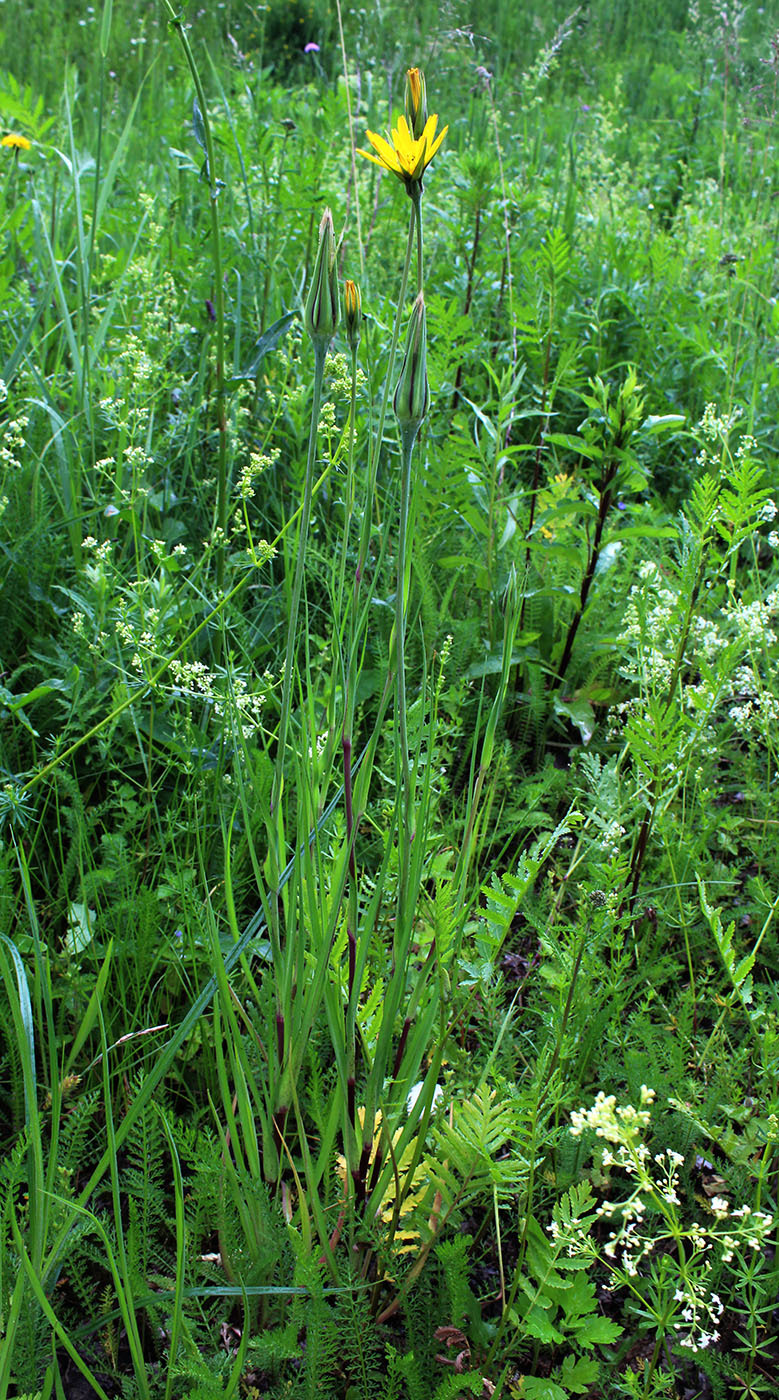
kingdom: Plantae
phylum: Tracheophyta
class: Magnoliopsida
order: Asterales
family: Asteraceae
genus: Tragopogon
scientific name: Tragopogon pratensis
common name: Goat's-beard
